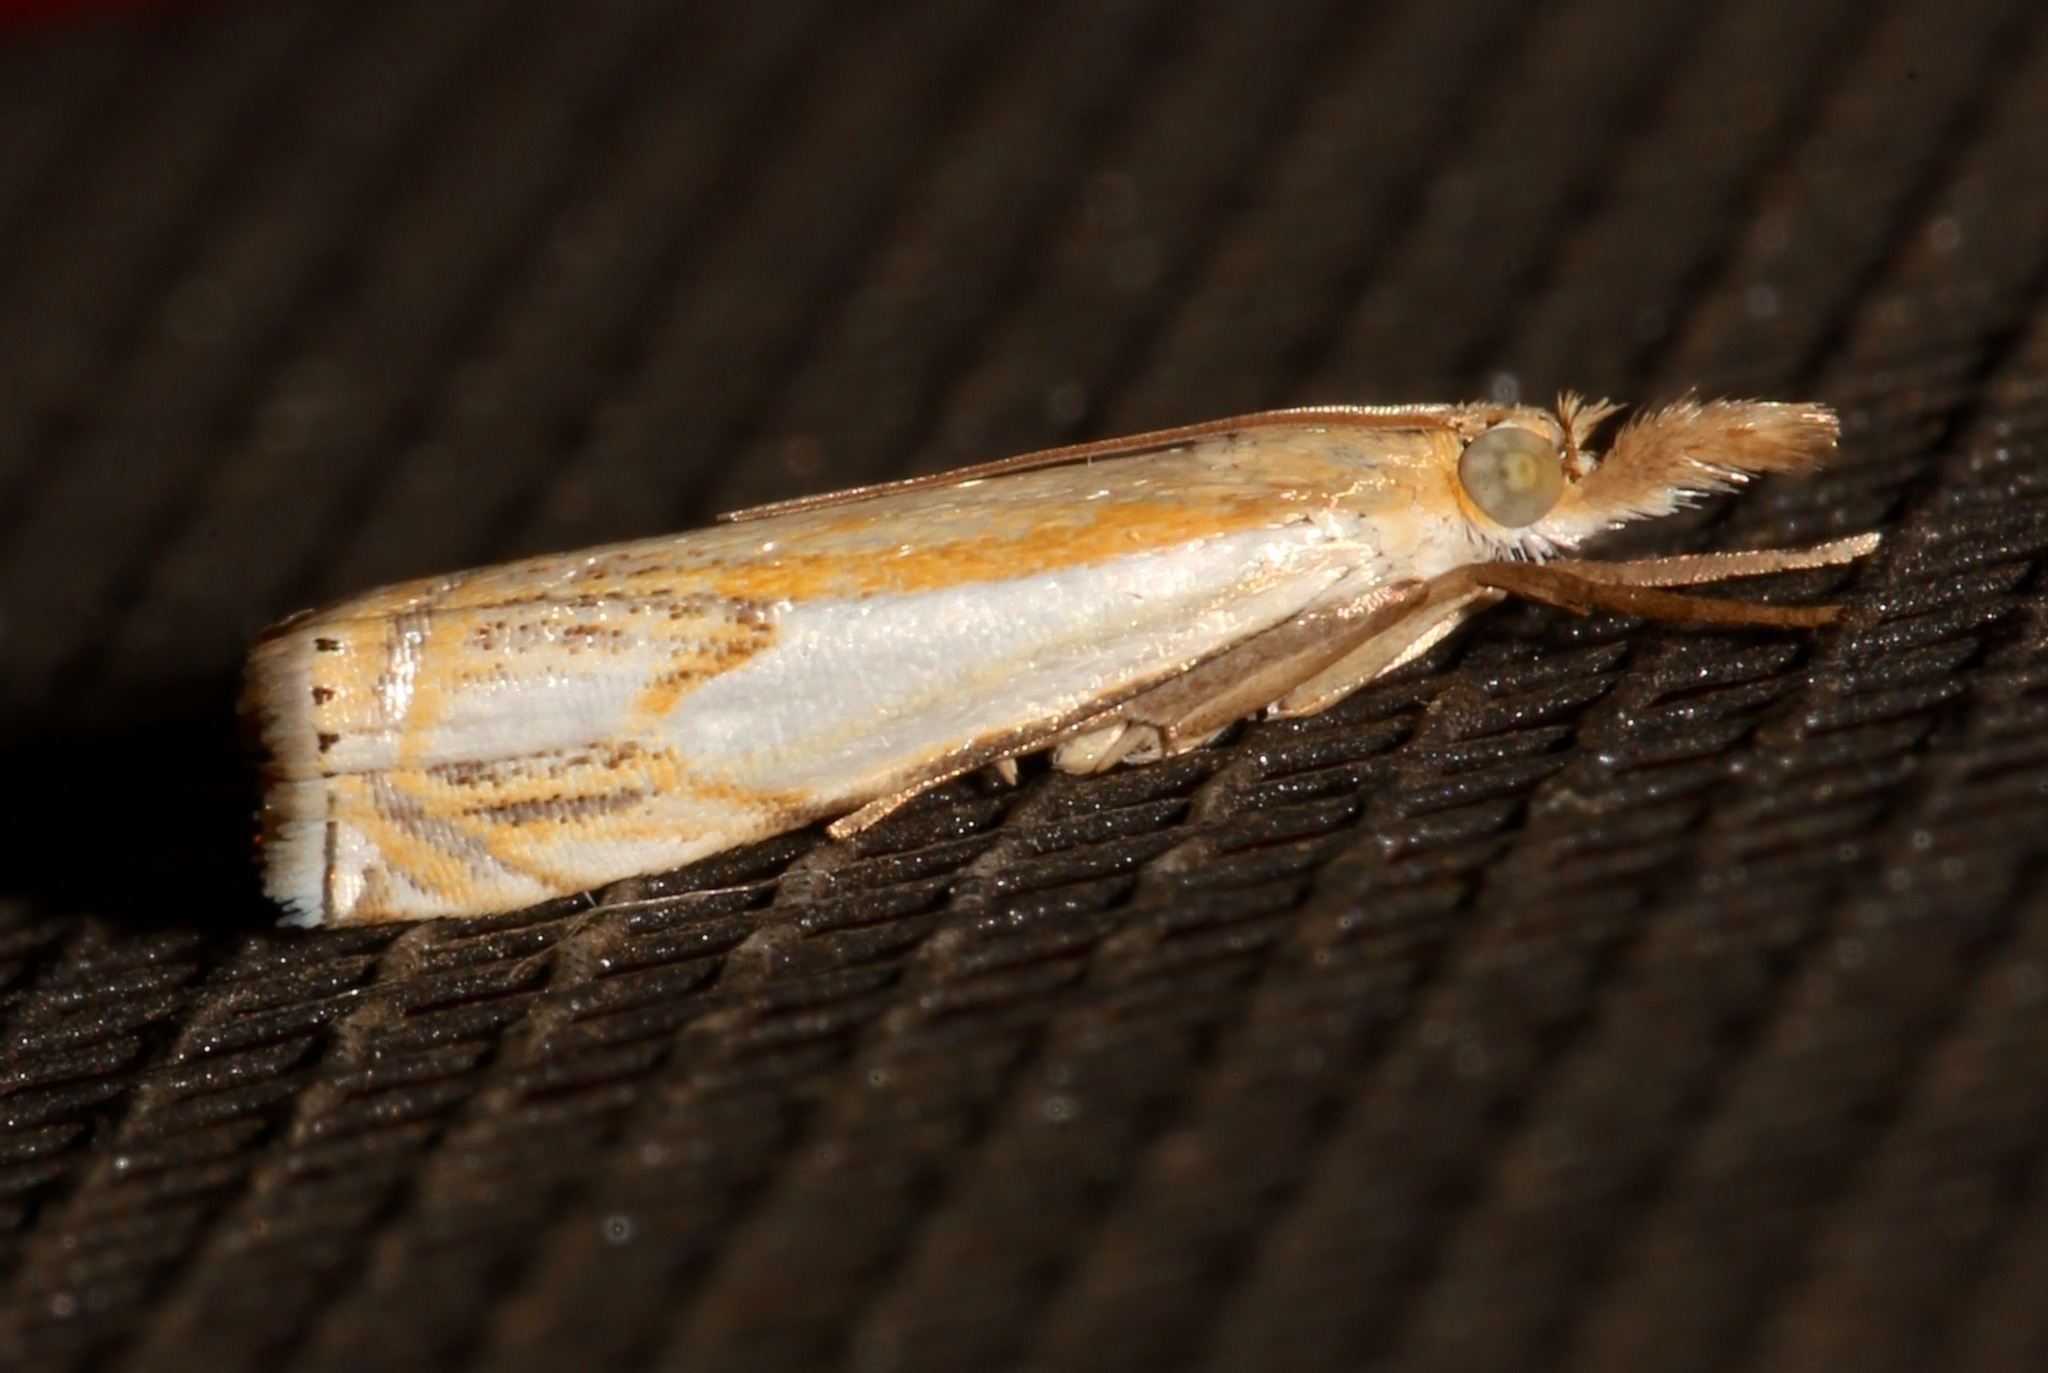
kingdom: Animalia
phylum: Arthropoda
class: Insecta
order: Lepidoptera
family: Crambidae
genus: Crambus
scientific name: Crambus agitatellus
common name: Double-banded grass-veneer
